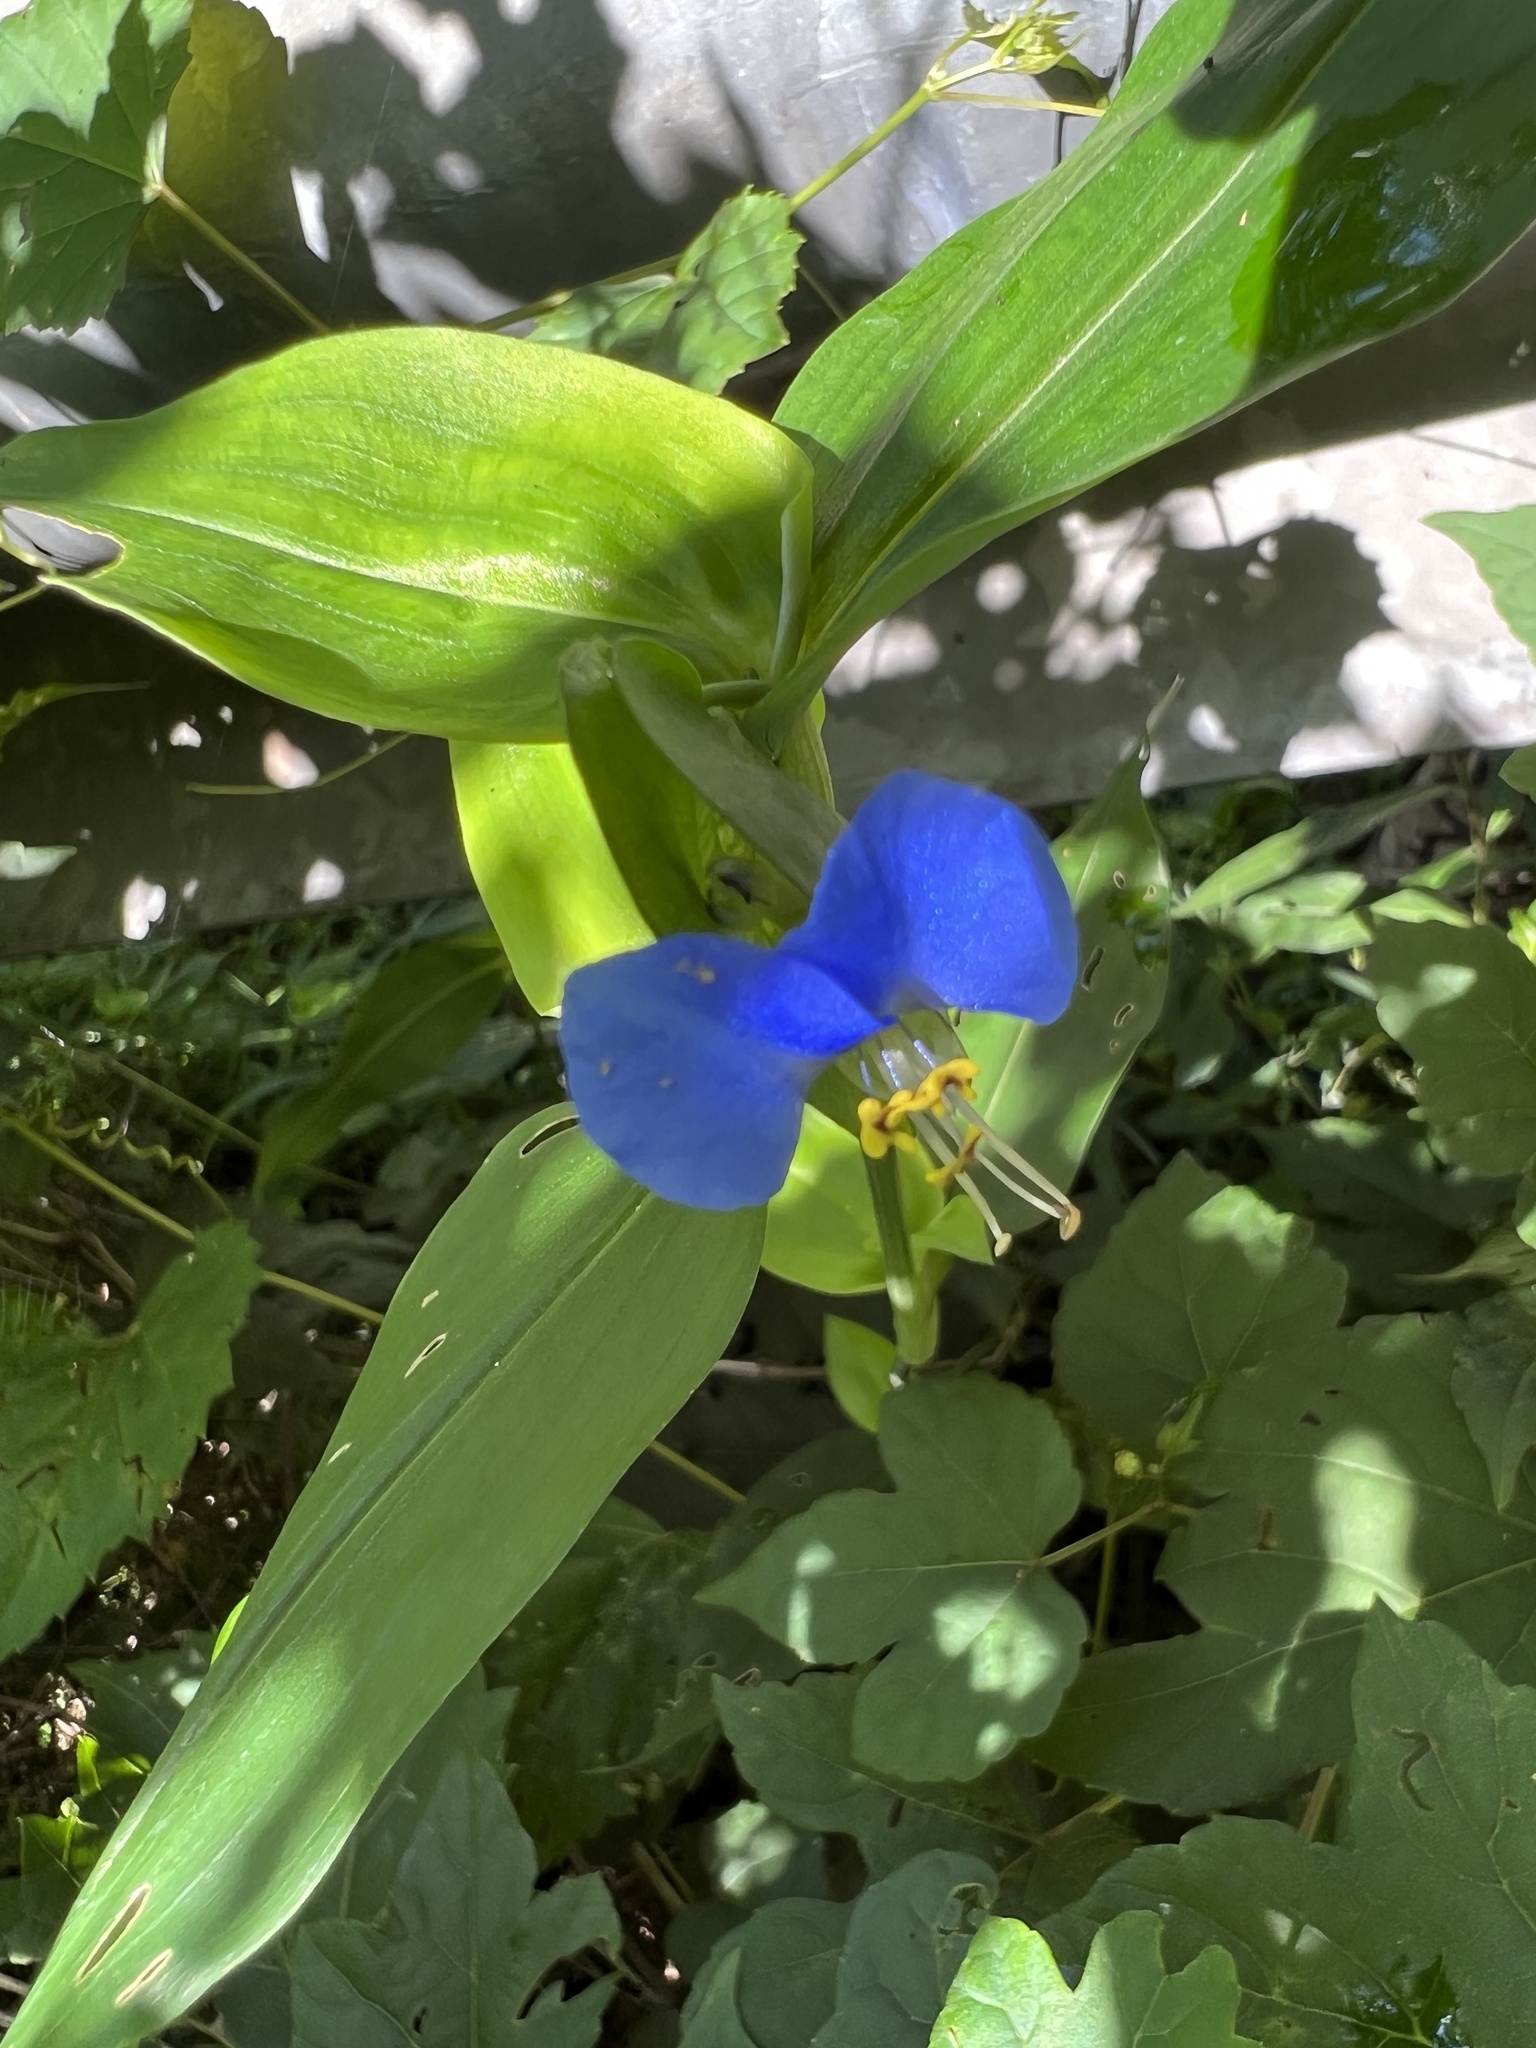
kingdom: Plantae
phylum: Tracheophyta
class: Liliopsida
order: Commelinales
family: Commelinaceae
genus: Commelina
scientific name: Commelina communis
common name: Asiatic dayflower
